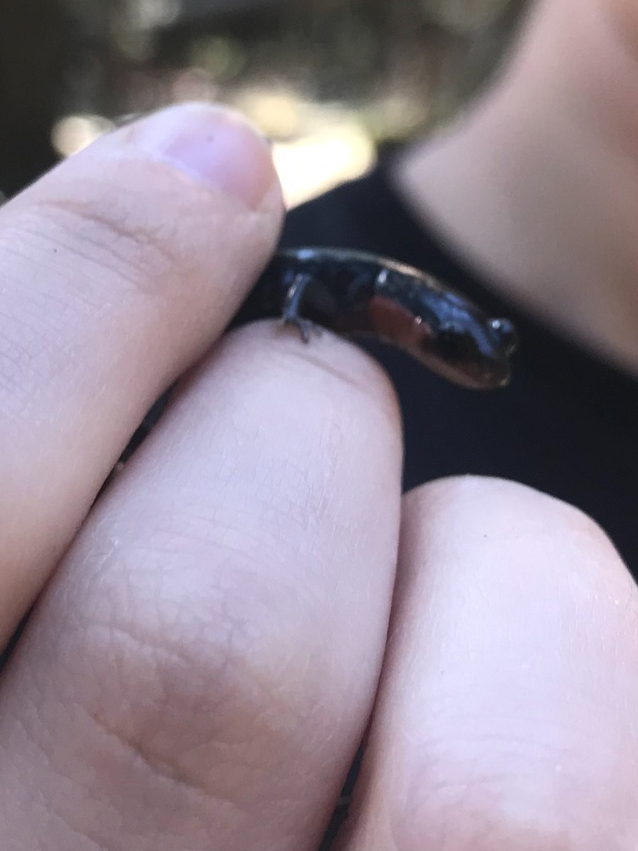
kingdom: Animalia
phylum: Chordata
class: Amphibia
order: Caudata
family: Plethodontidae
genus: Plethodon
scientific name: Plethodon jordani
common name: Red-cheeked salamander
